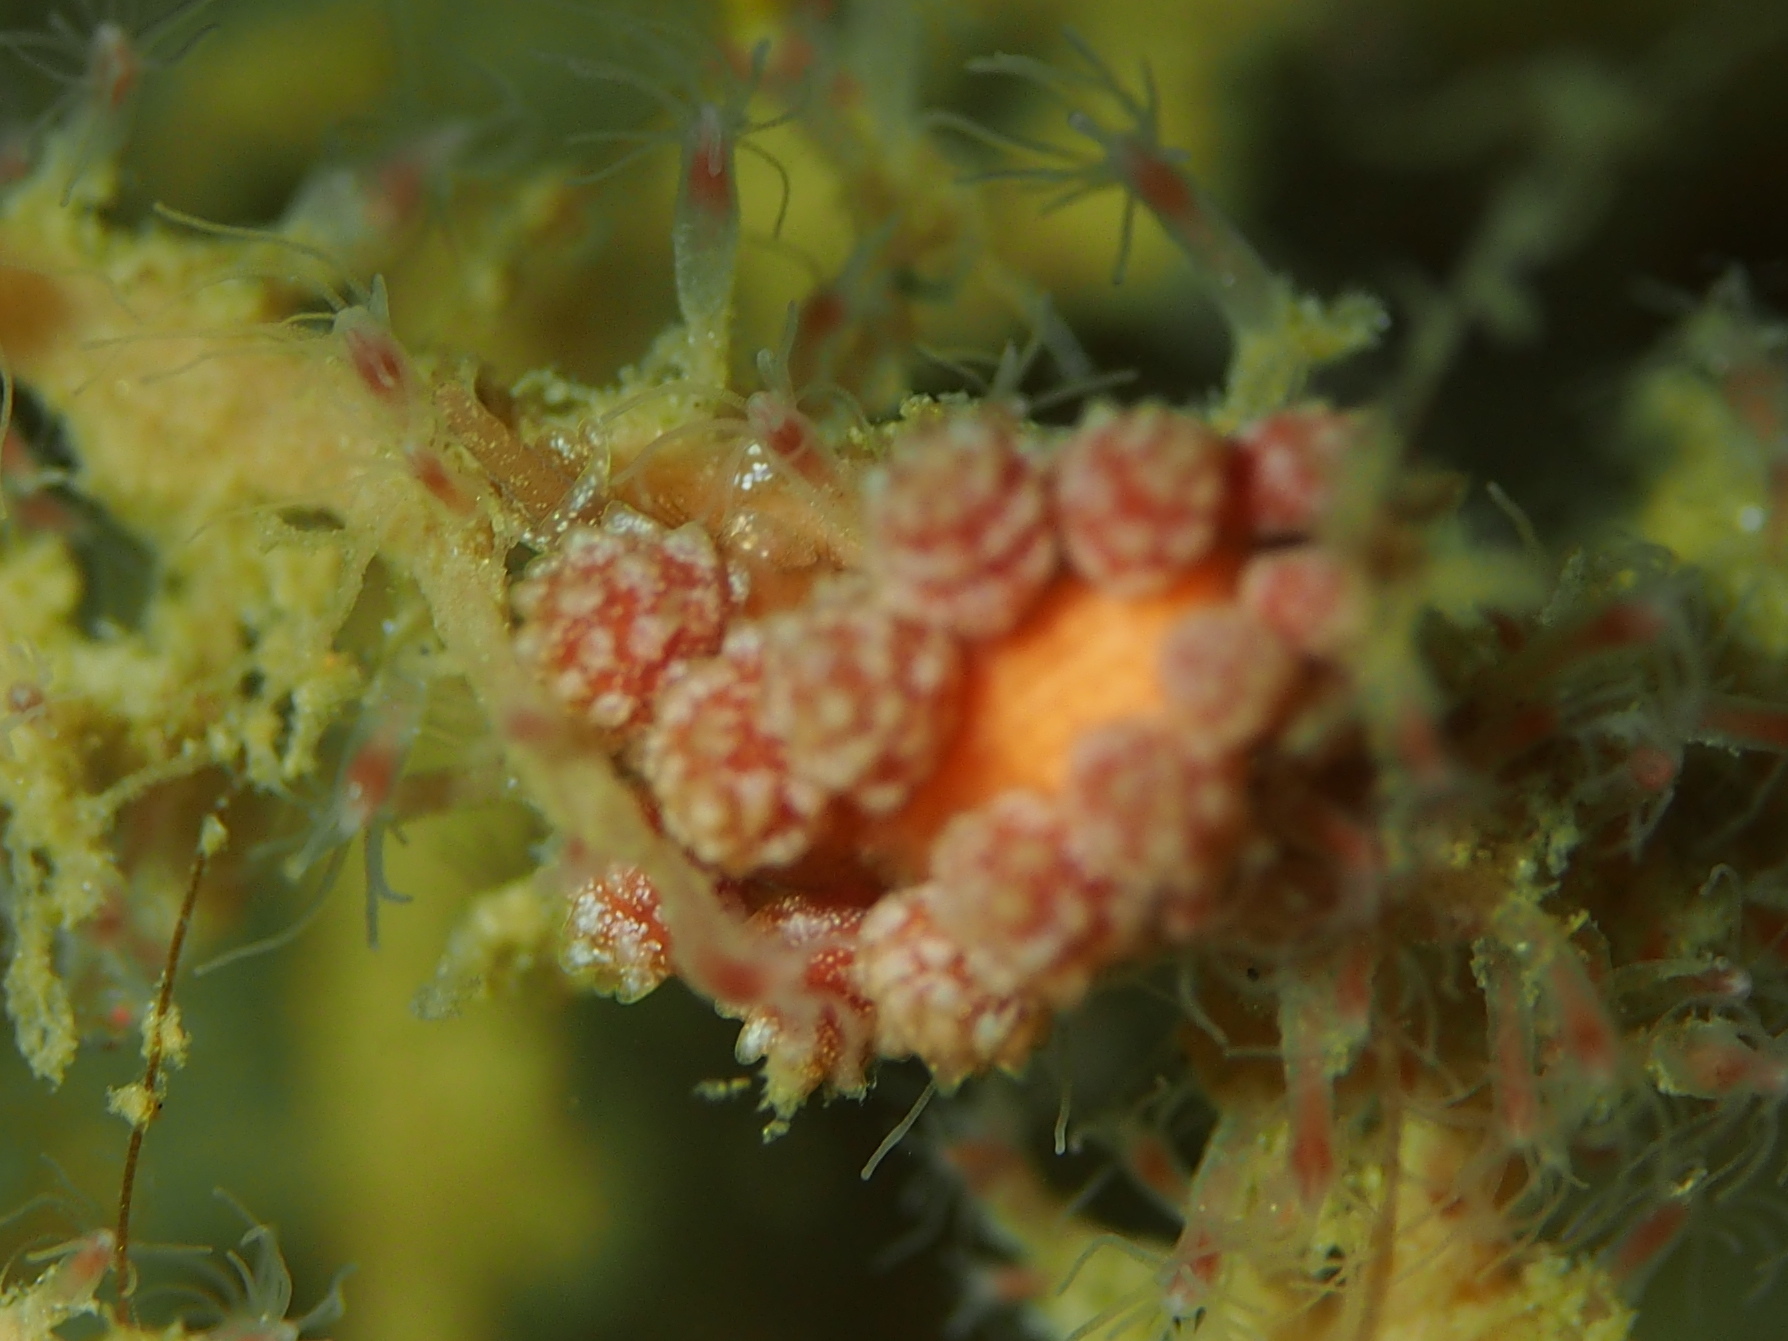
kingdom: Animalia
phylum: Mollusca
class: Gastropoda
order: Nudibranchia
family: Dotidae
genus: Doto
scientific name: Doto fragilis
